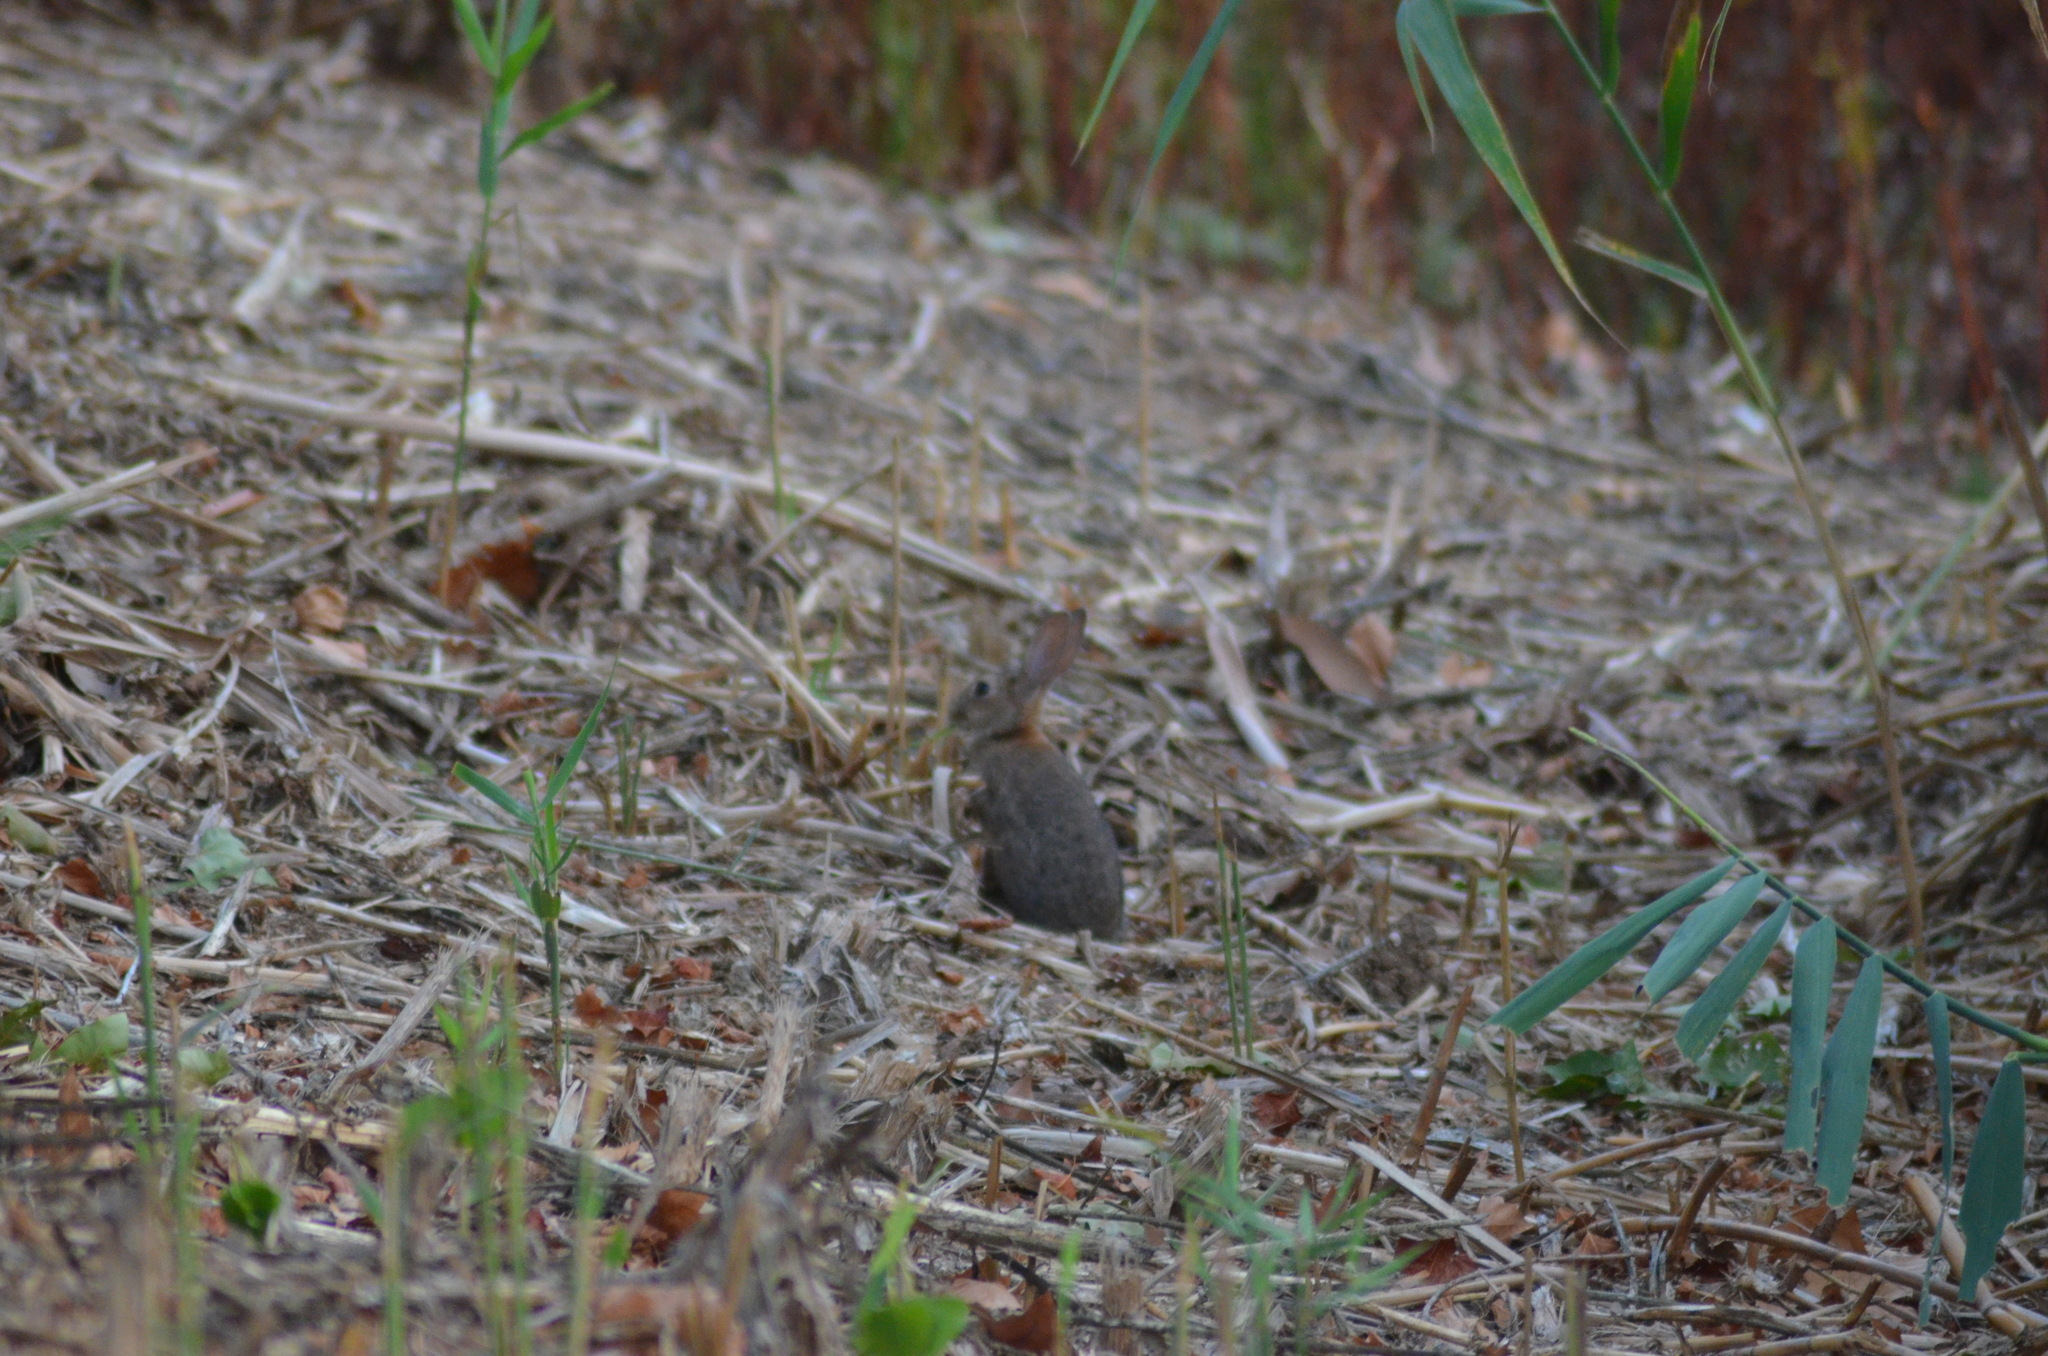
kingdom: Animalia
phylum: Chordata
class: Mammalia
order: Lagomorpha
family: Leporidae
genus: Oryctolagus
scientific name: Oryctolagus cuniculus
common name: European rabbit
